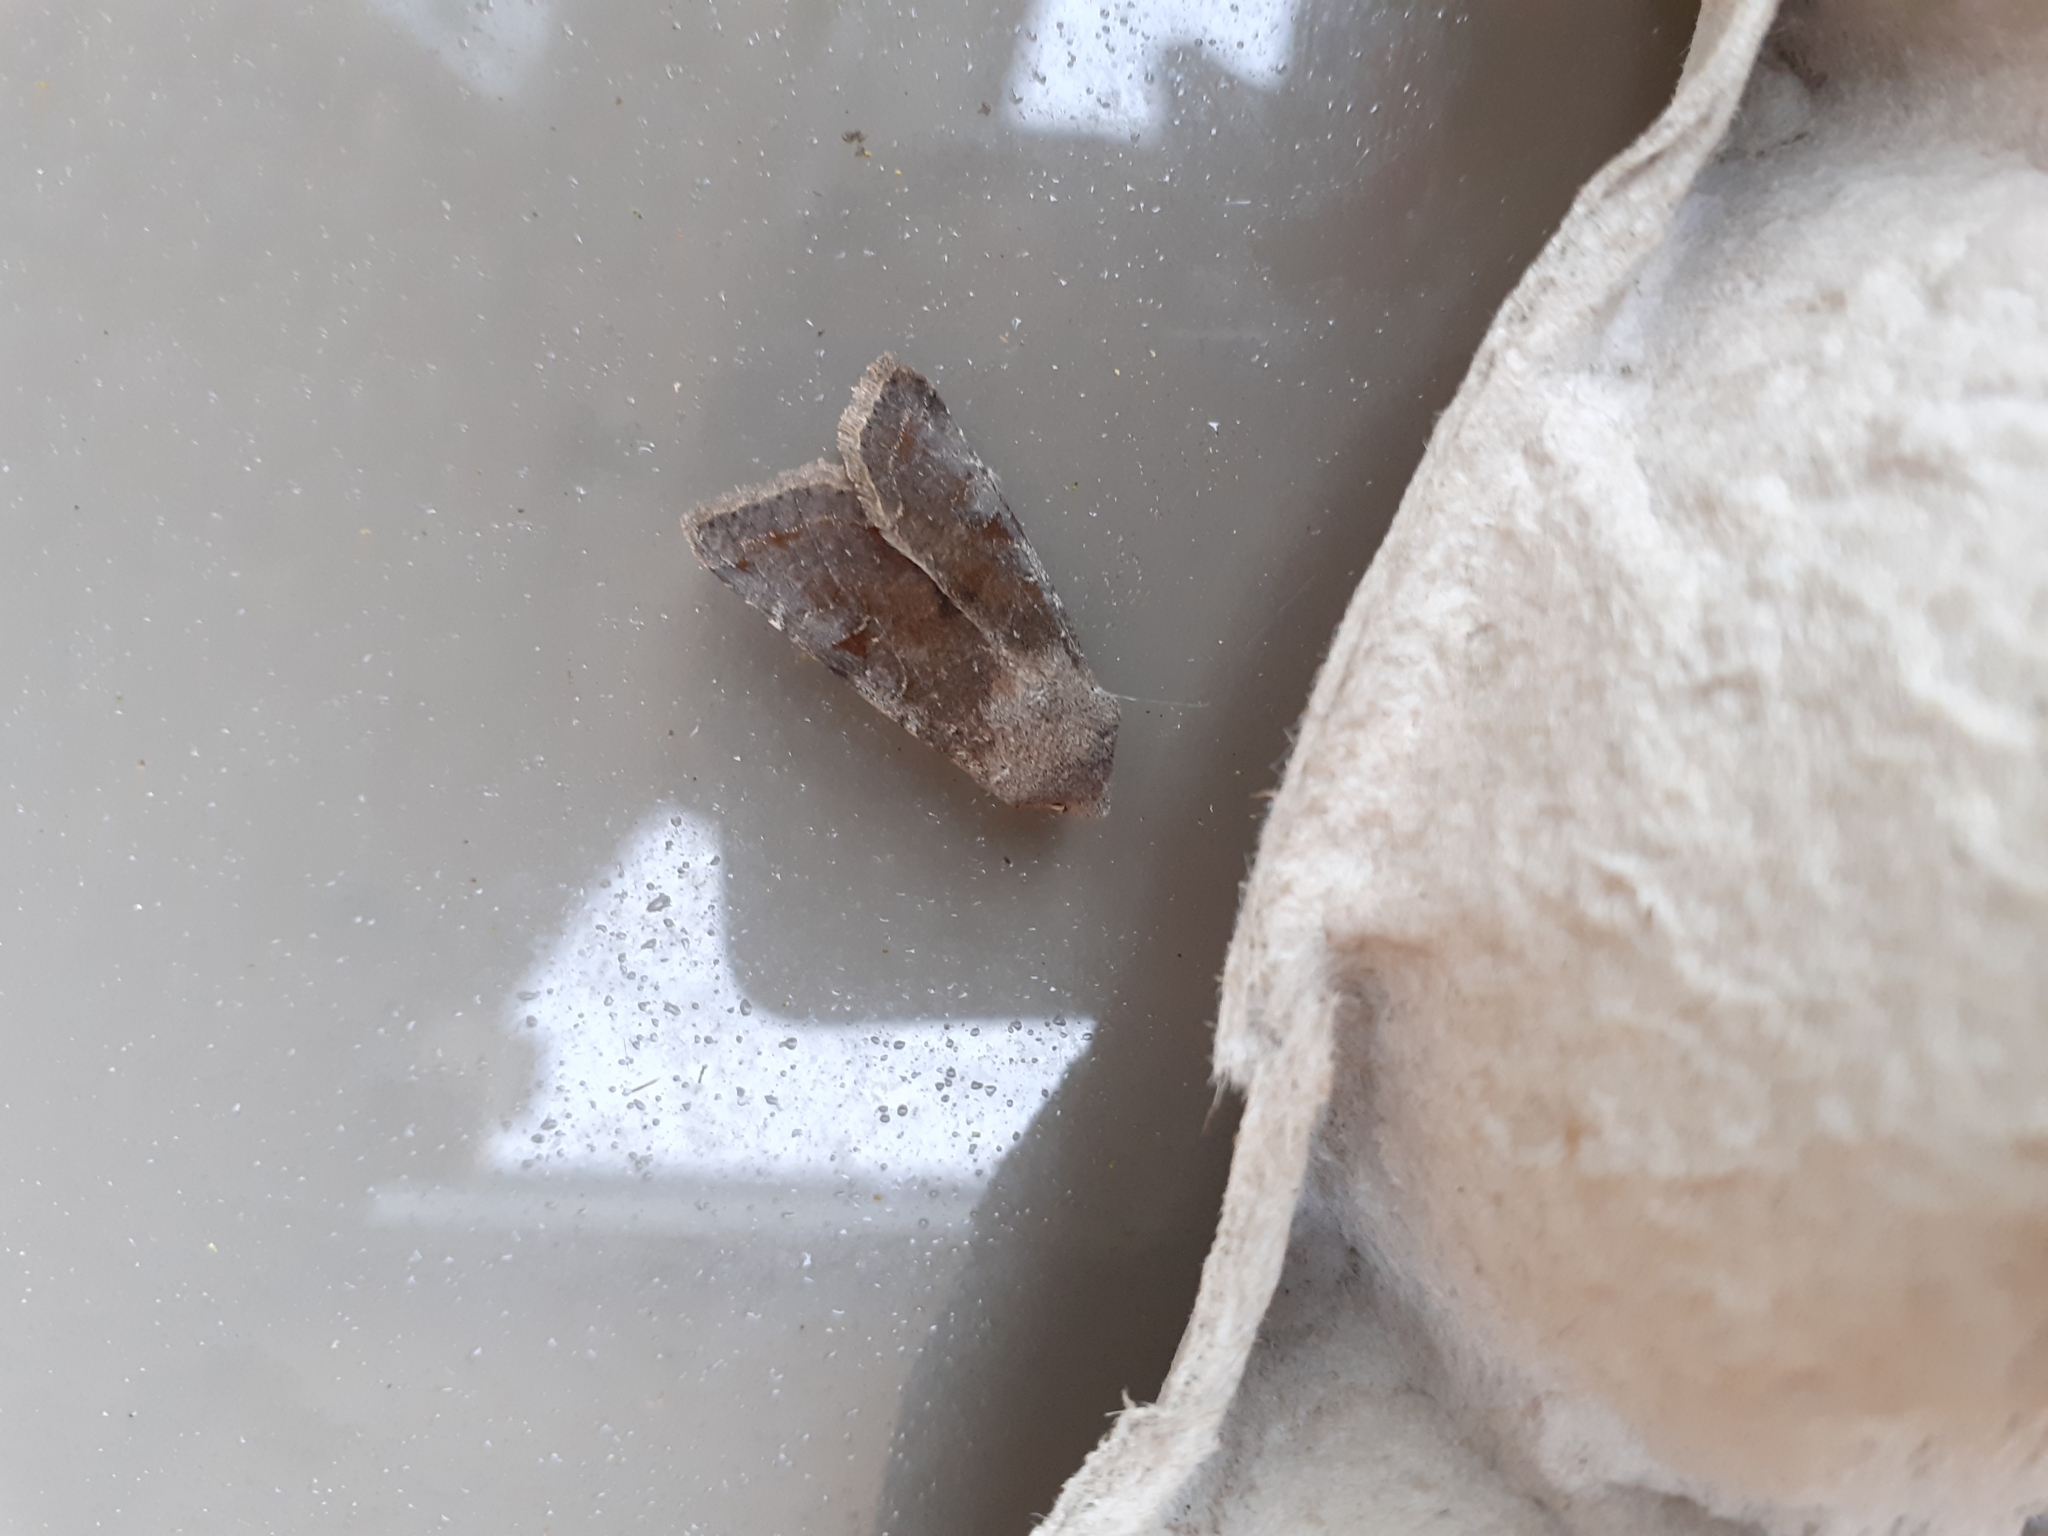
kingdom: Animalia
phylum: Arthropoda
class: Insecta
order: Lepidoptera
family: Noctuidae
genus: Orthosia
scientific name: Orthosia incerta
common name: Clouded drab
